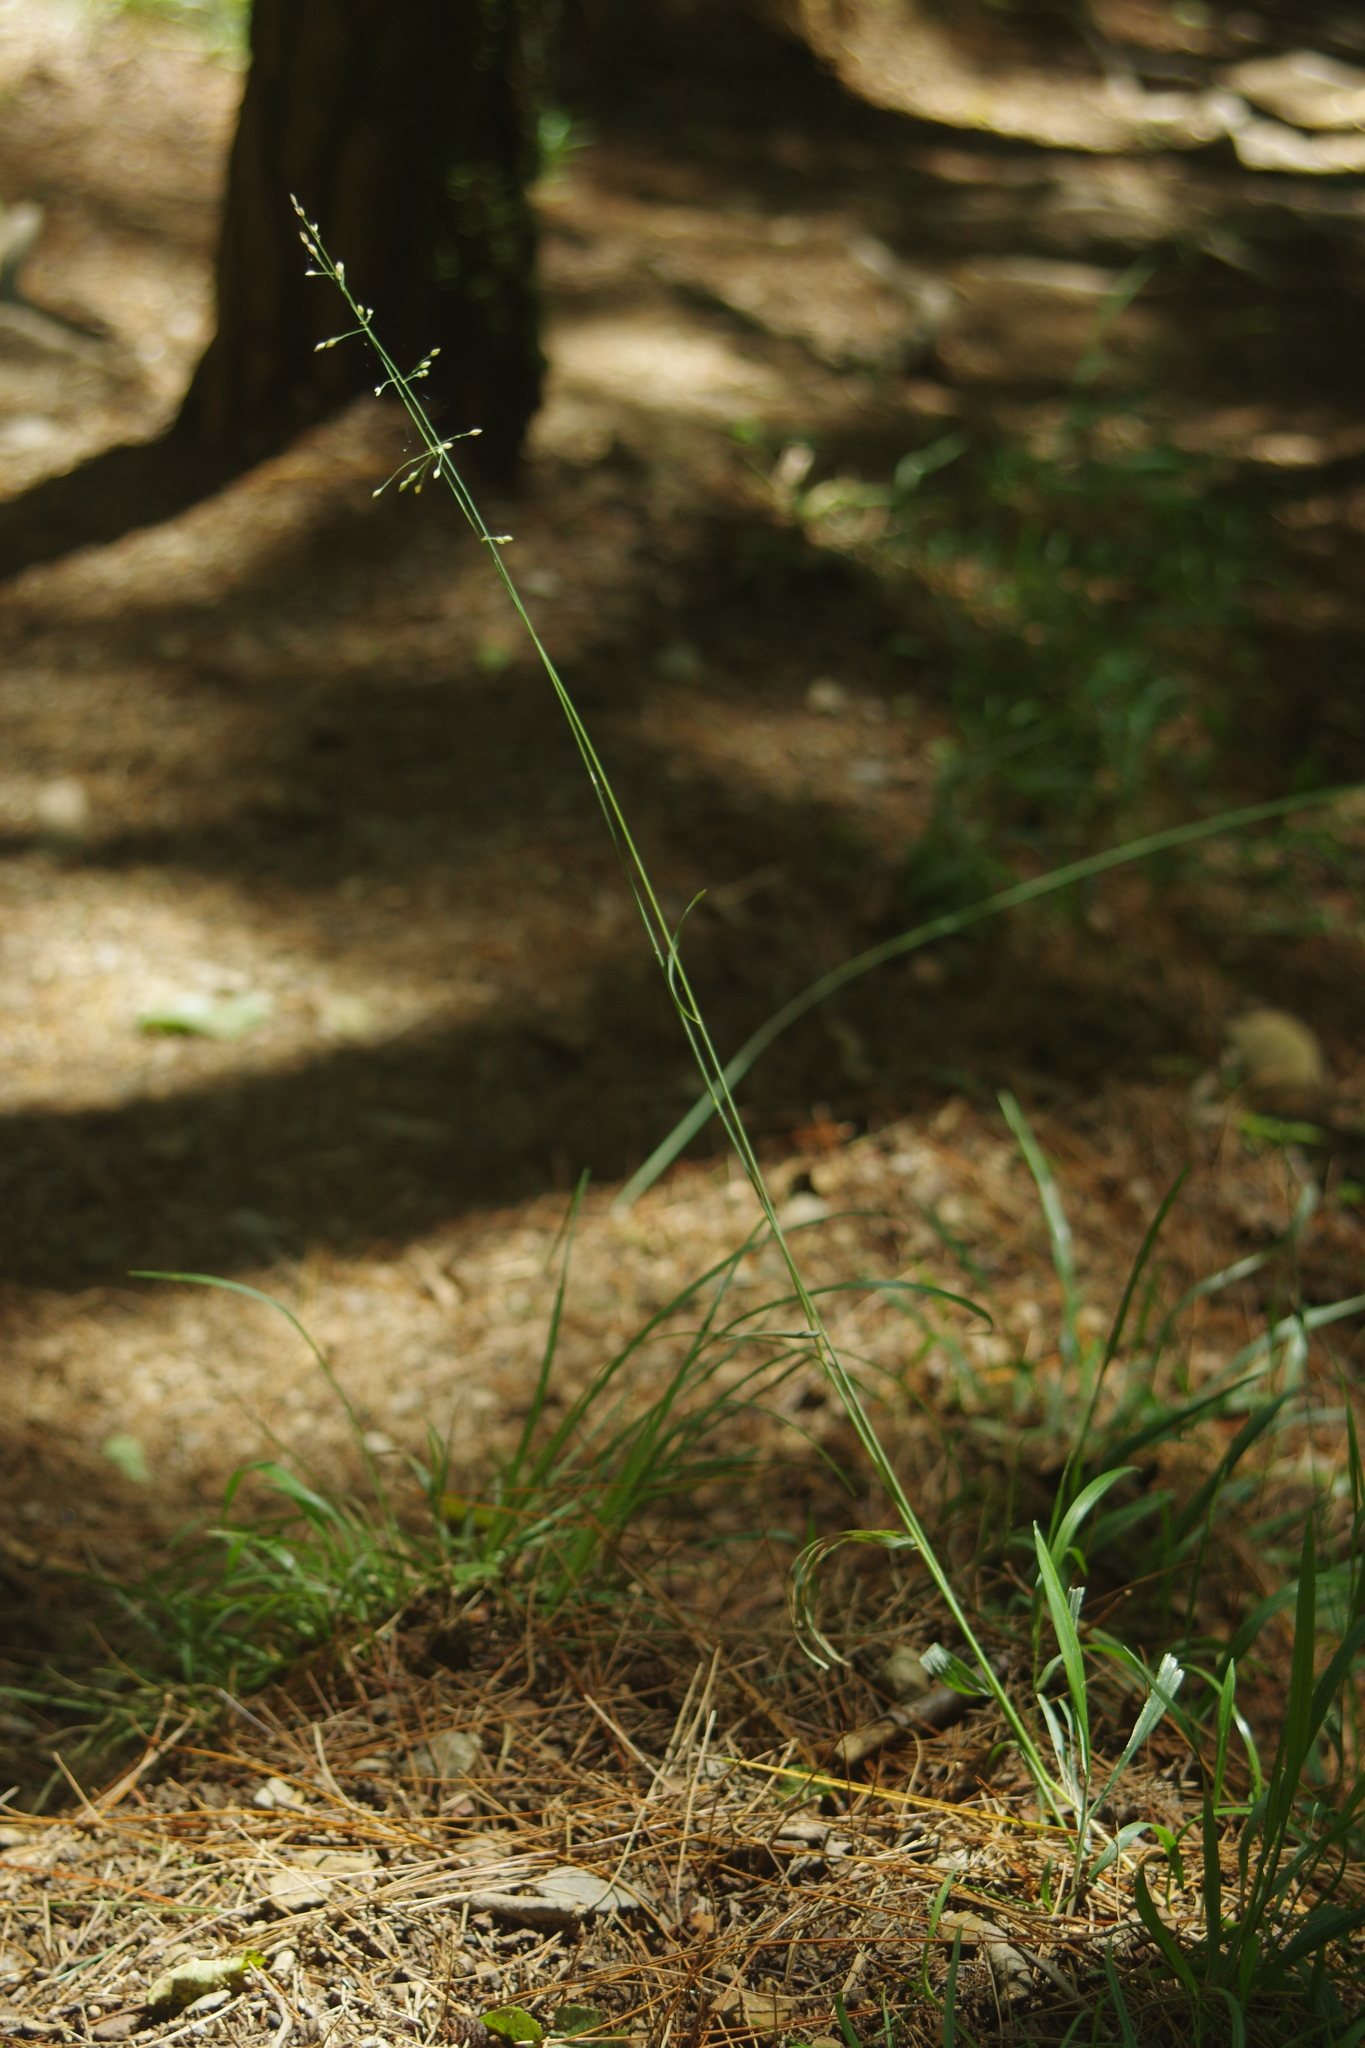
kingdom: Plantae
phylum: Tracheophyta
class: Liliopsida
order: Poales
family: Poaceae
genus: Milium
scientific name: Milium effusum
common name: Wood millet
